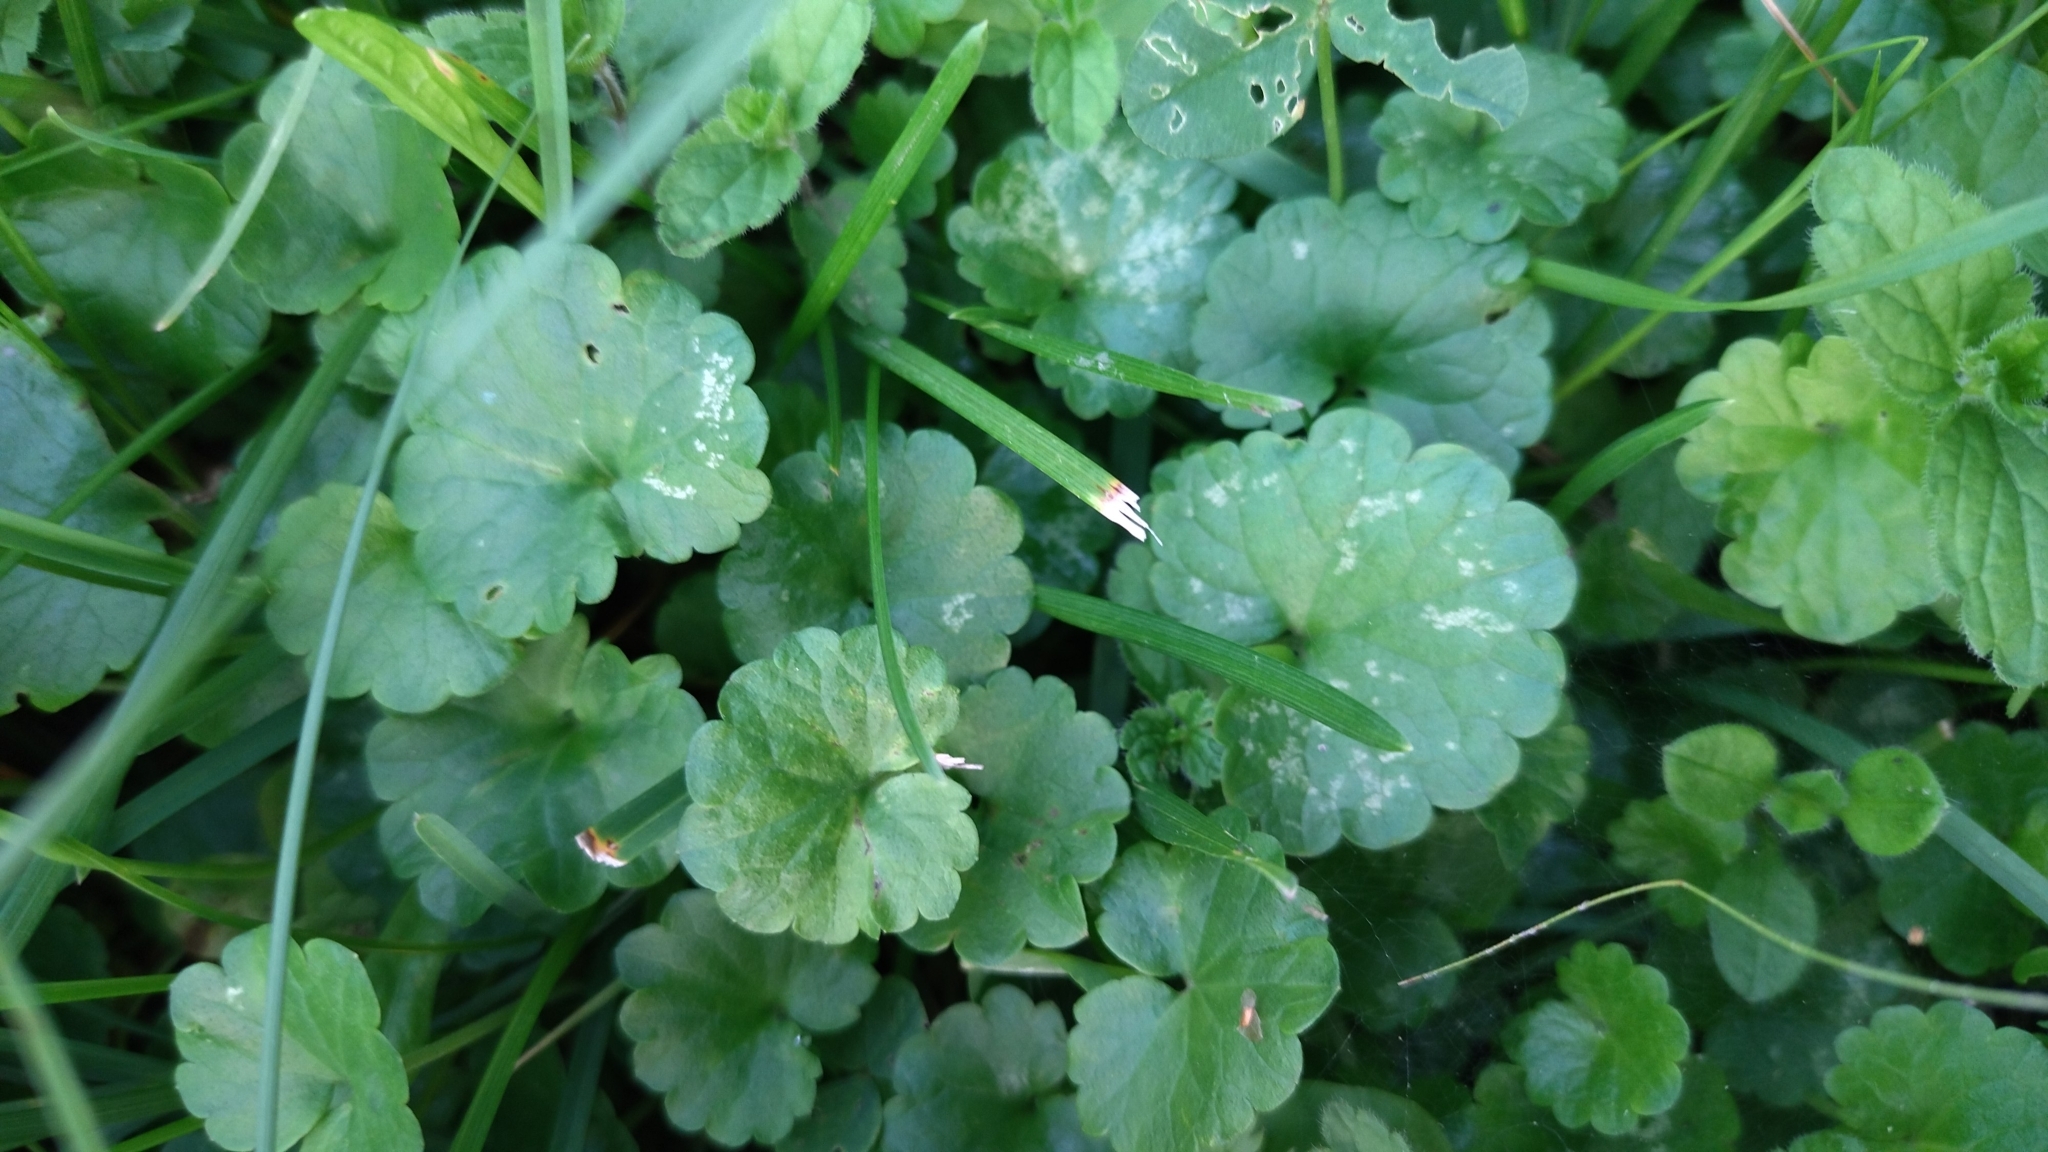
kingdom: Plantae
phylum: Tracheophyta
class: Magnoliopsida
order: Lamiales
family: Lamiaceae
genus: Glechoma
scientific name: Glechoma hederacea
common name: Ground ivy
